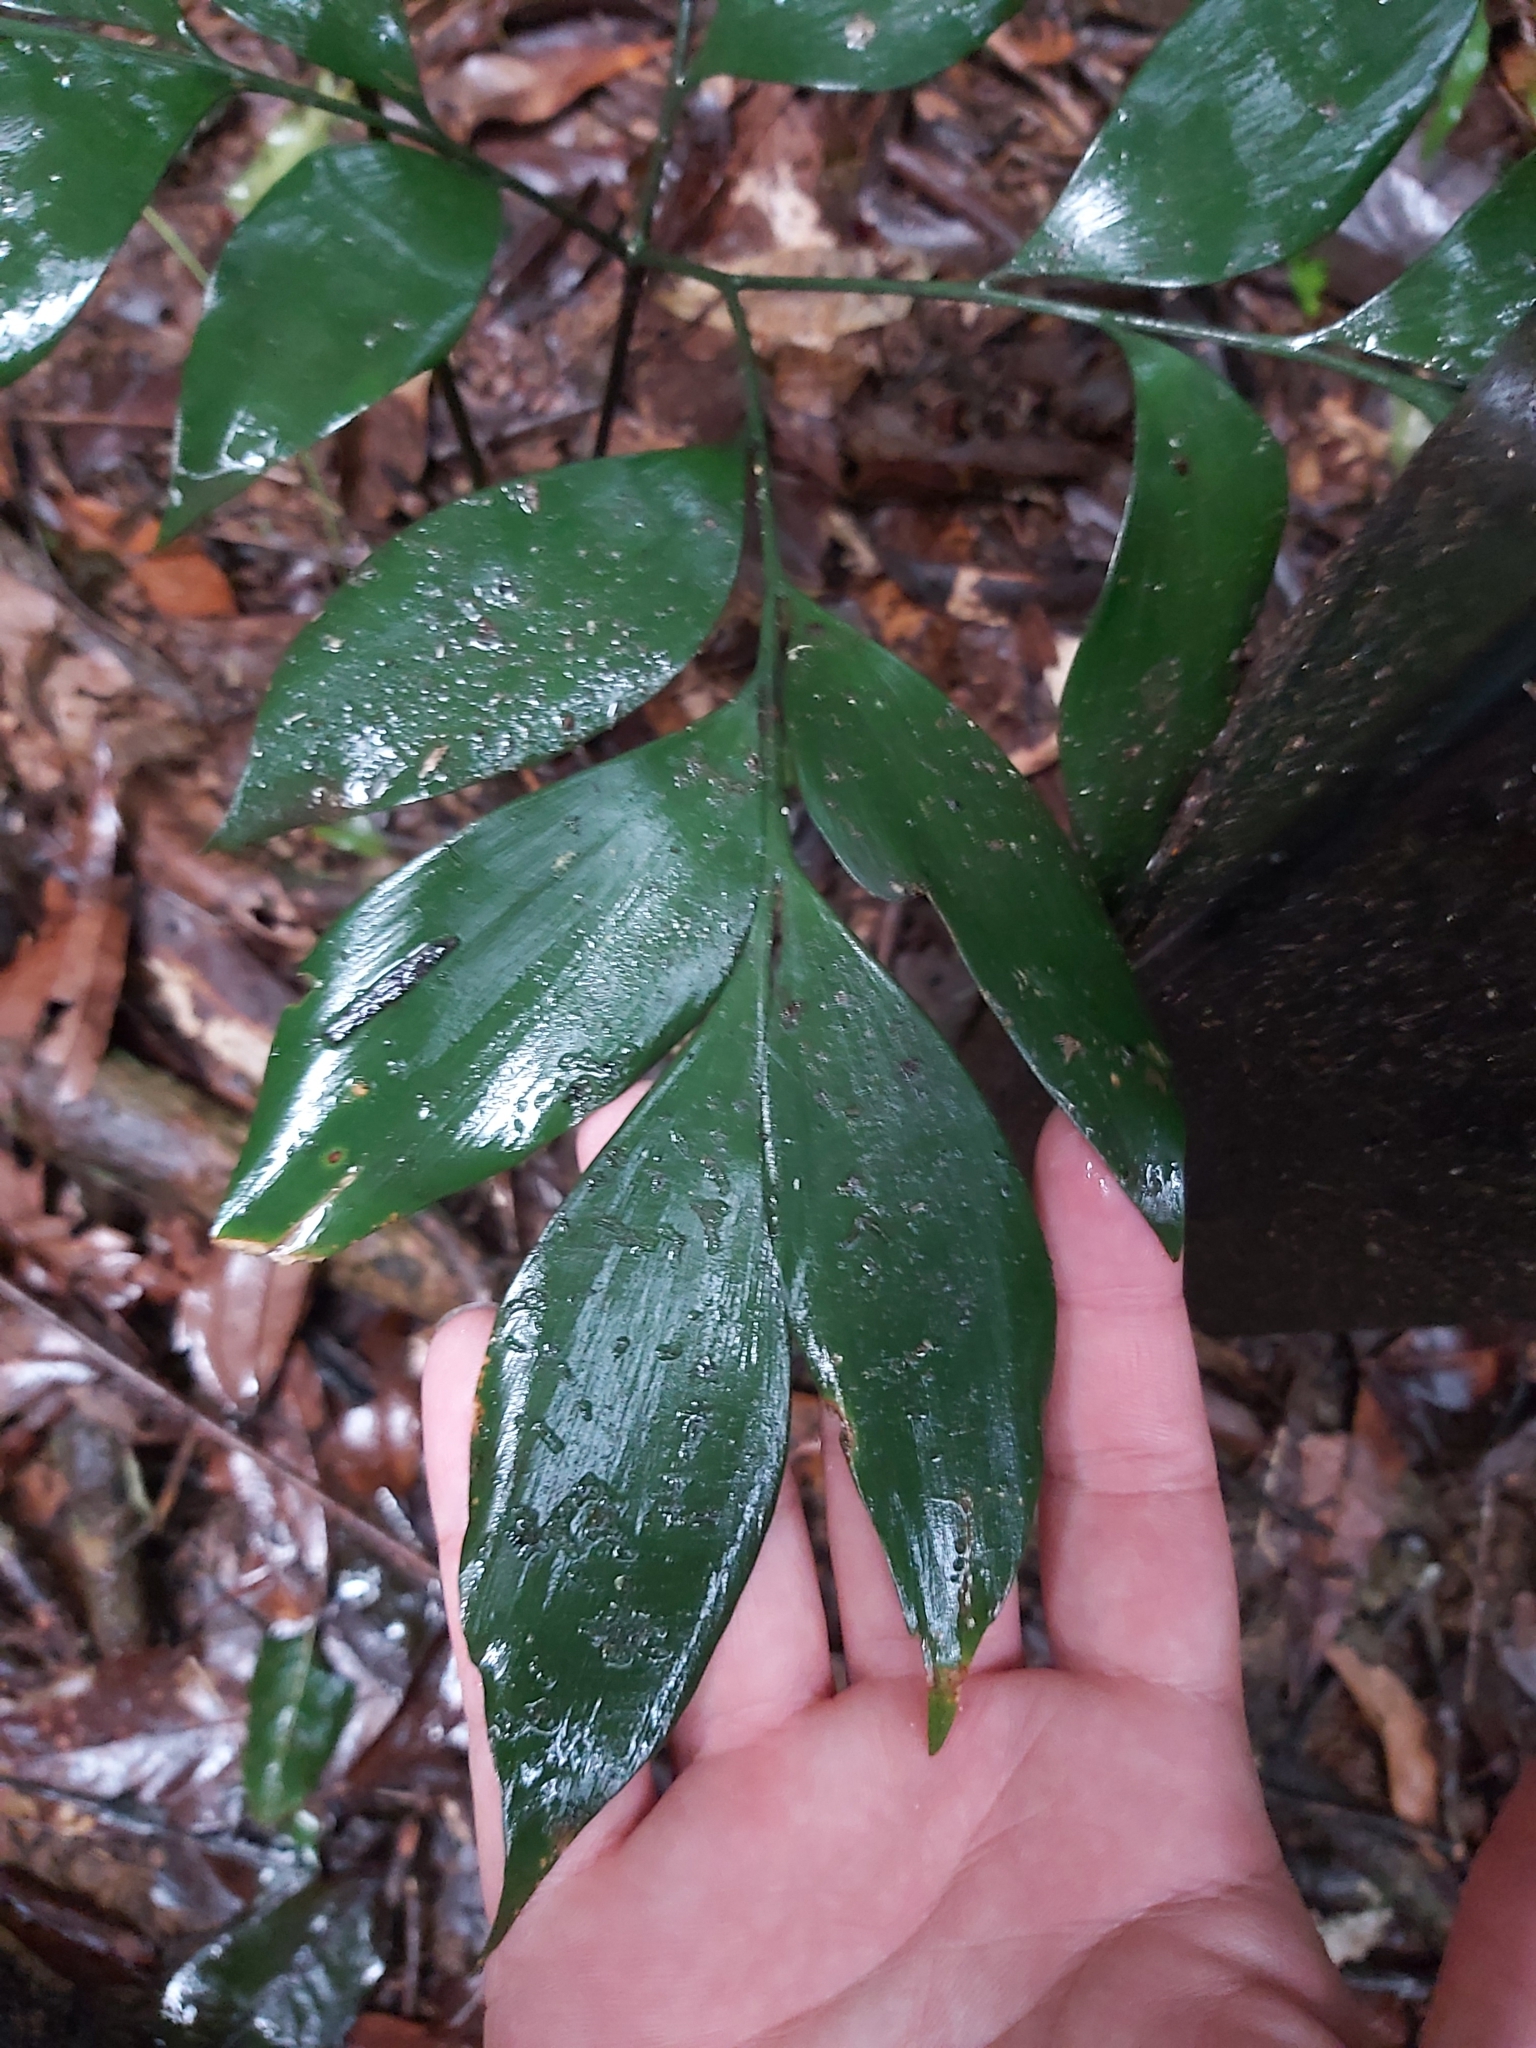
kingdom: Plantae
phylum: Tracheophyta
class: Cycadopsida
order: Cycadales
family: Zamiaceae
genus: Bowenia
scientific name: Bowenia spectabilis
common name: Zamia-fern
